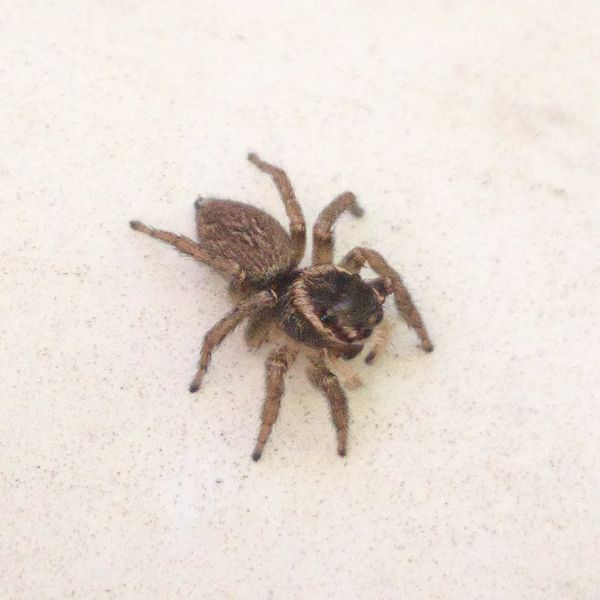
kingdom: Animalia
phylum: Arthropoda
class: Arachnida
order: Araneae
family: Salticidae
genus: Maratus
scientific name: Maratus griseus
